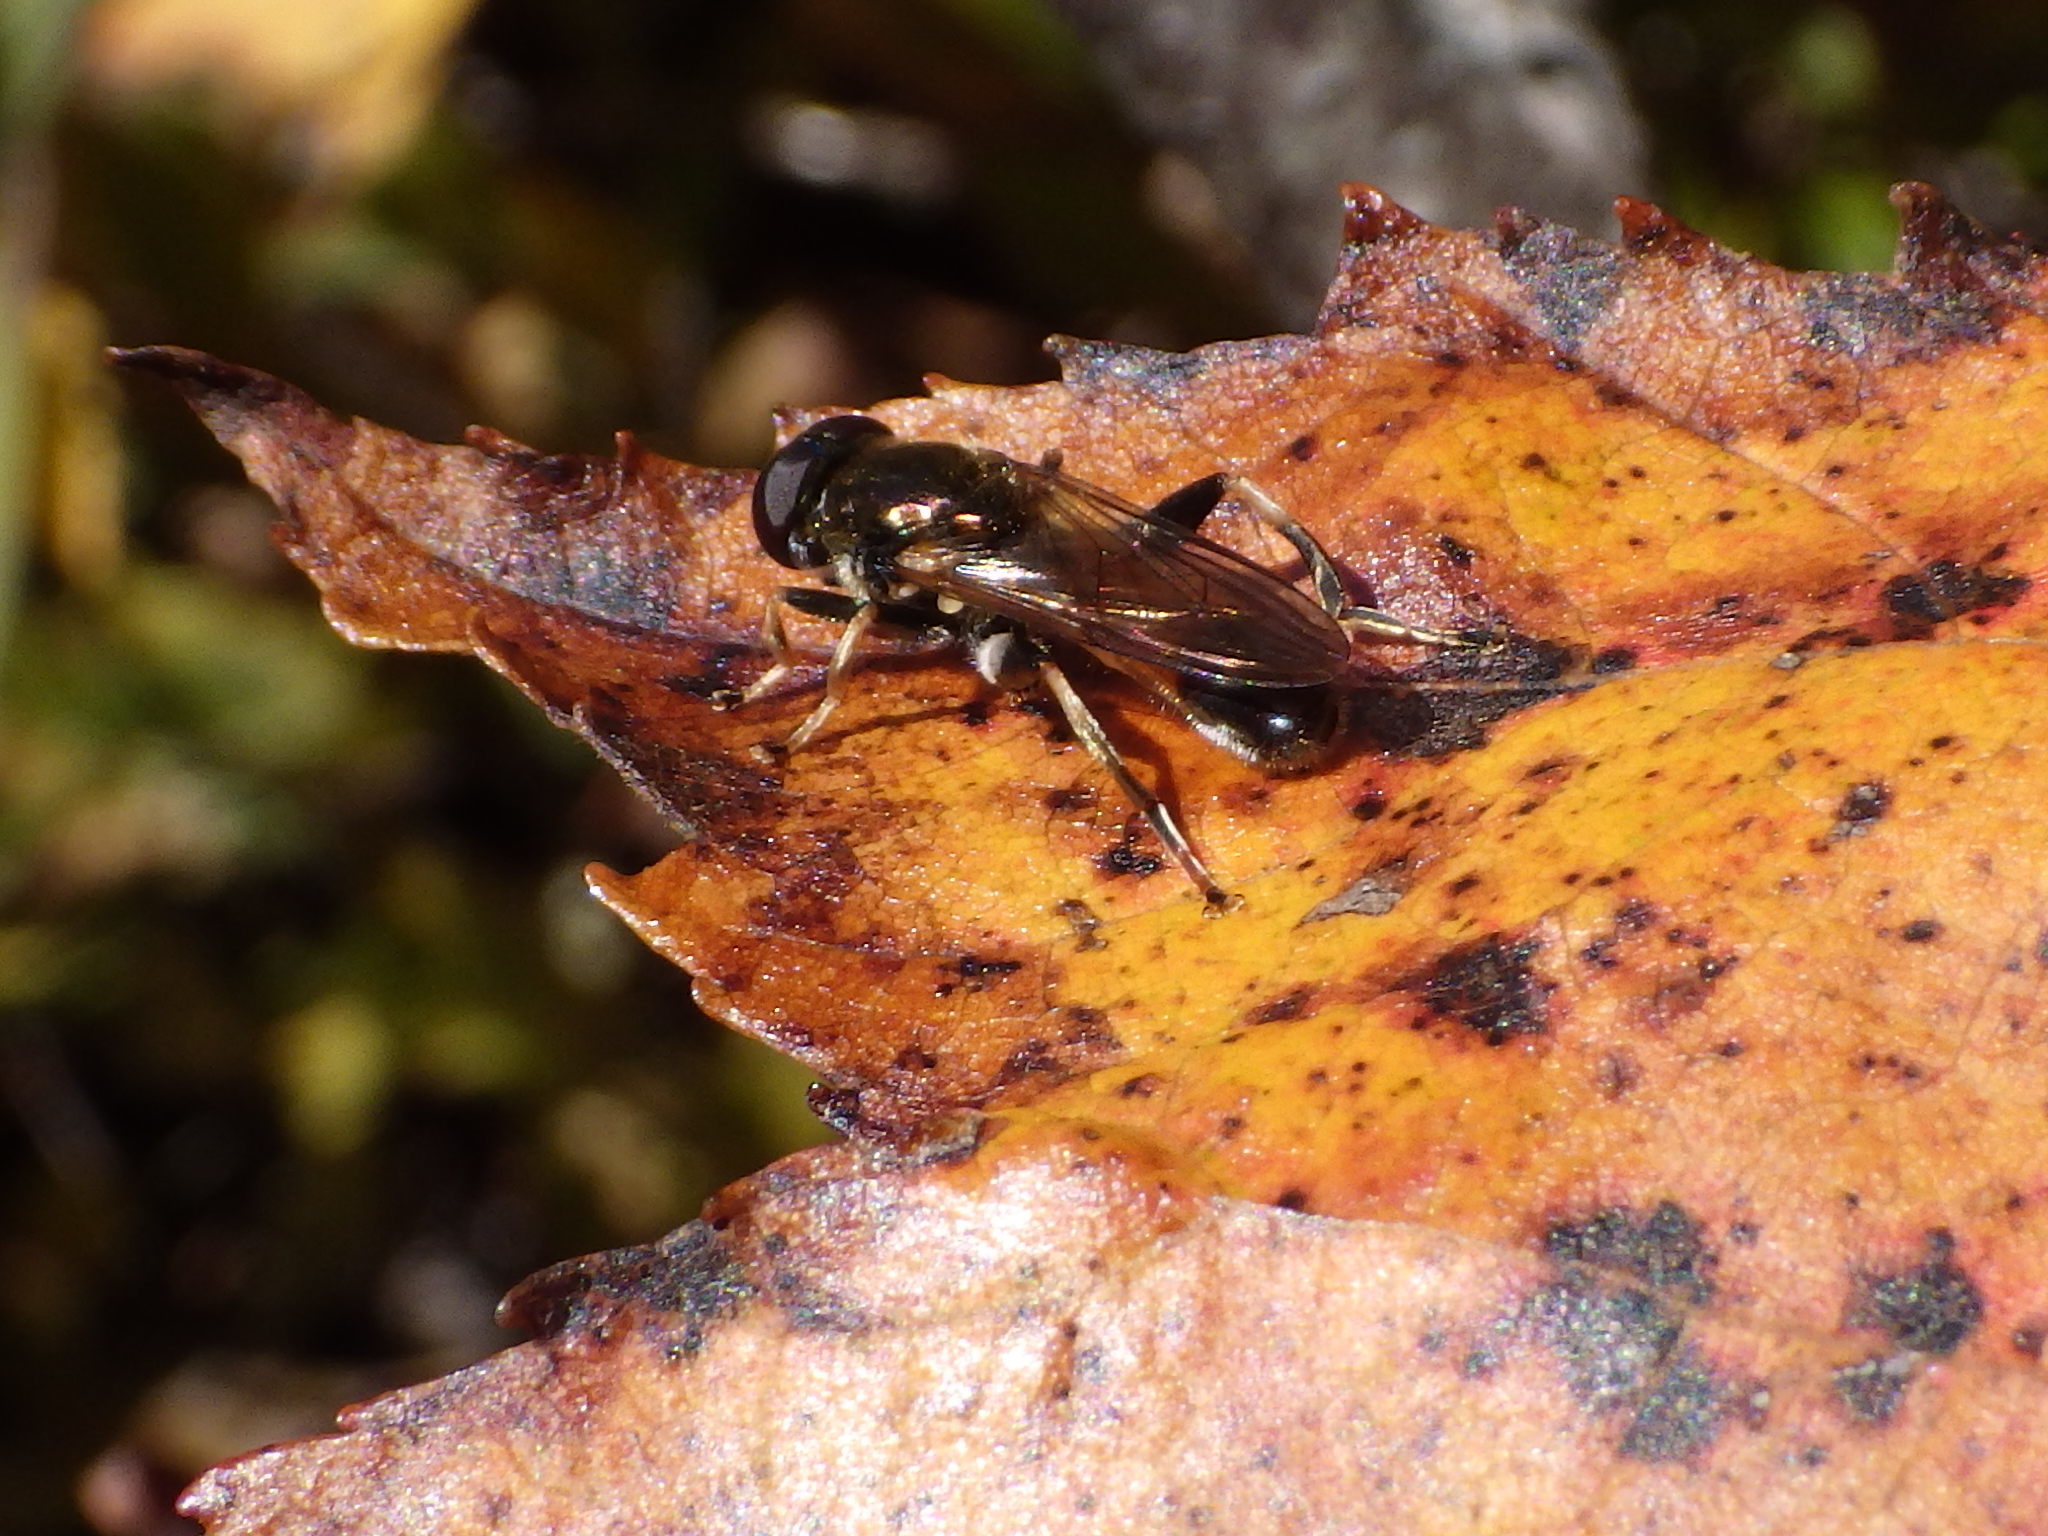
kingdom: Animalia
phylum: Arthropoda
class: Insecta
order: Diptera
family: Syrphidae
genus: Xylota
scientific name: Xylota segnis
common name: Brown-toed forest fly
